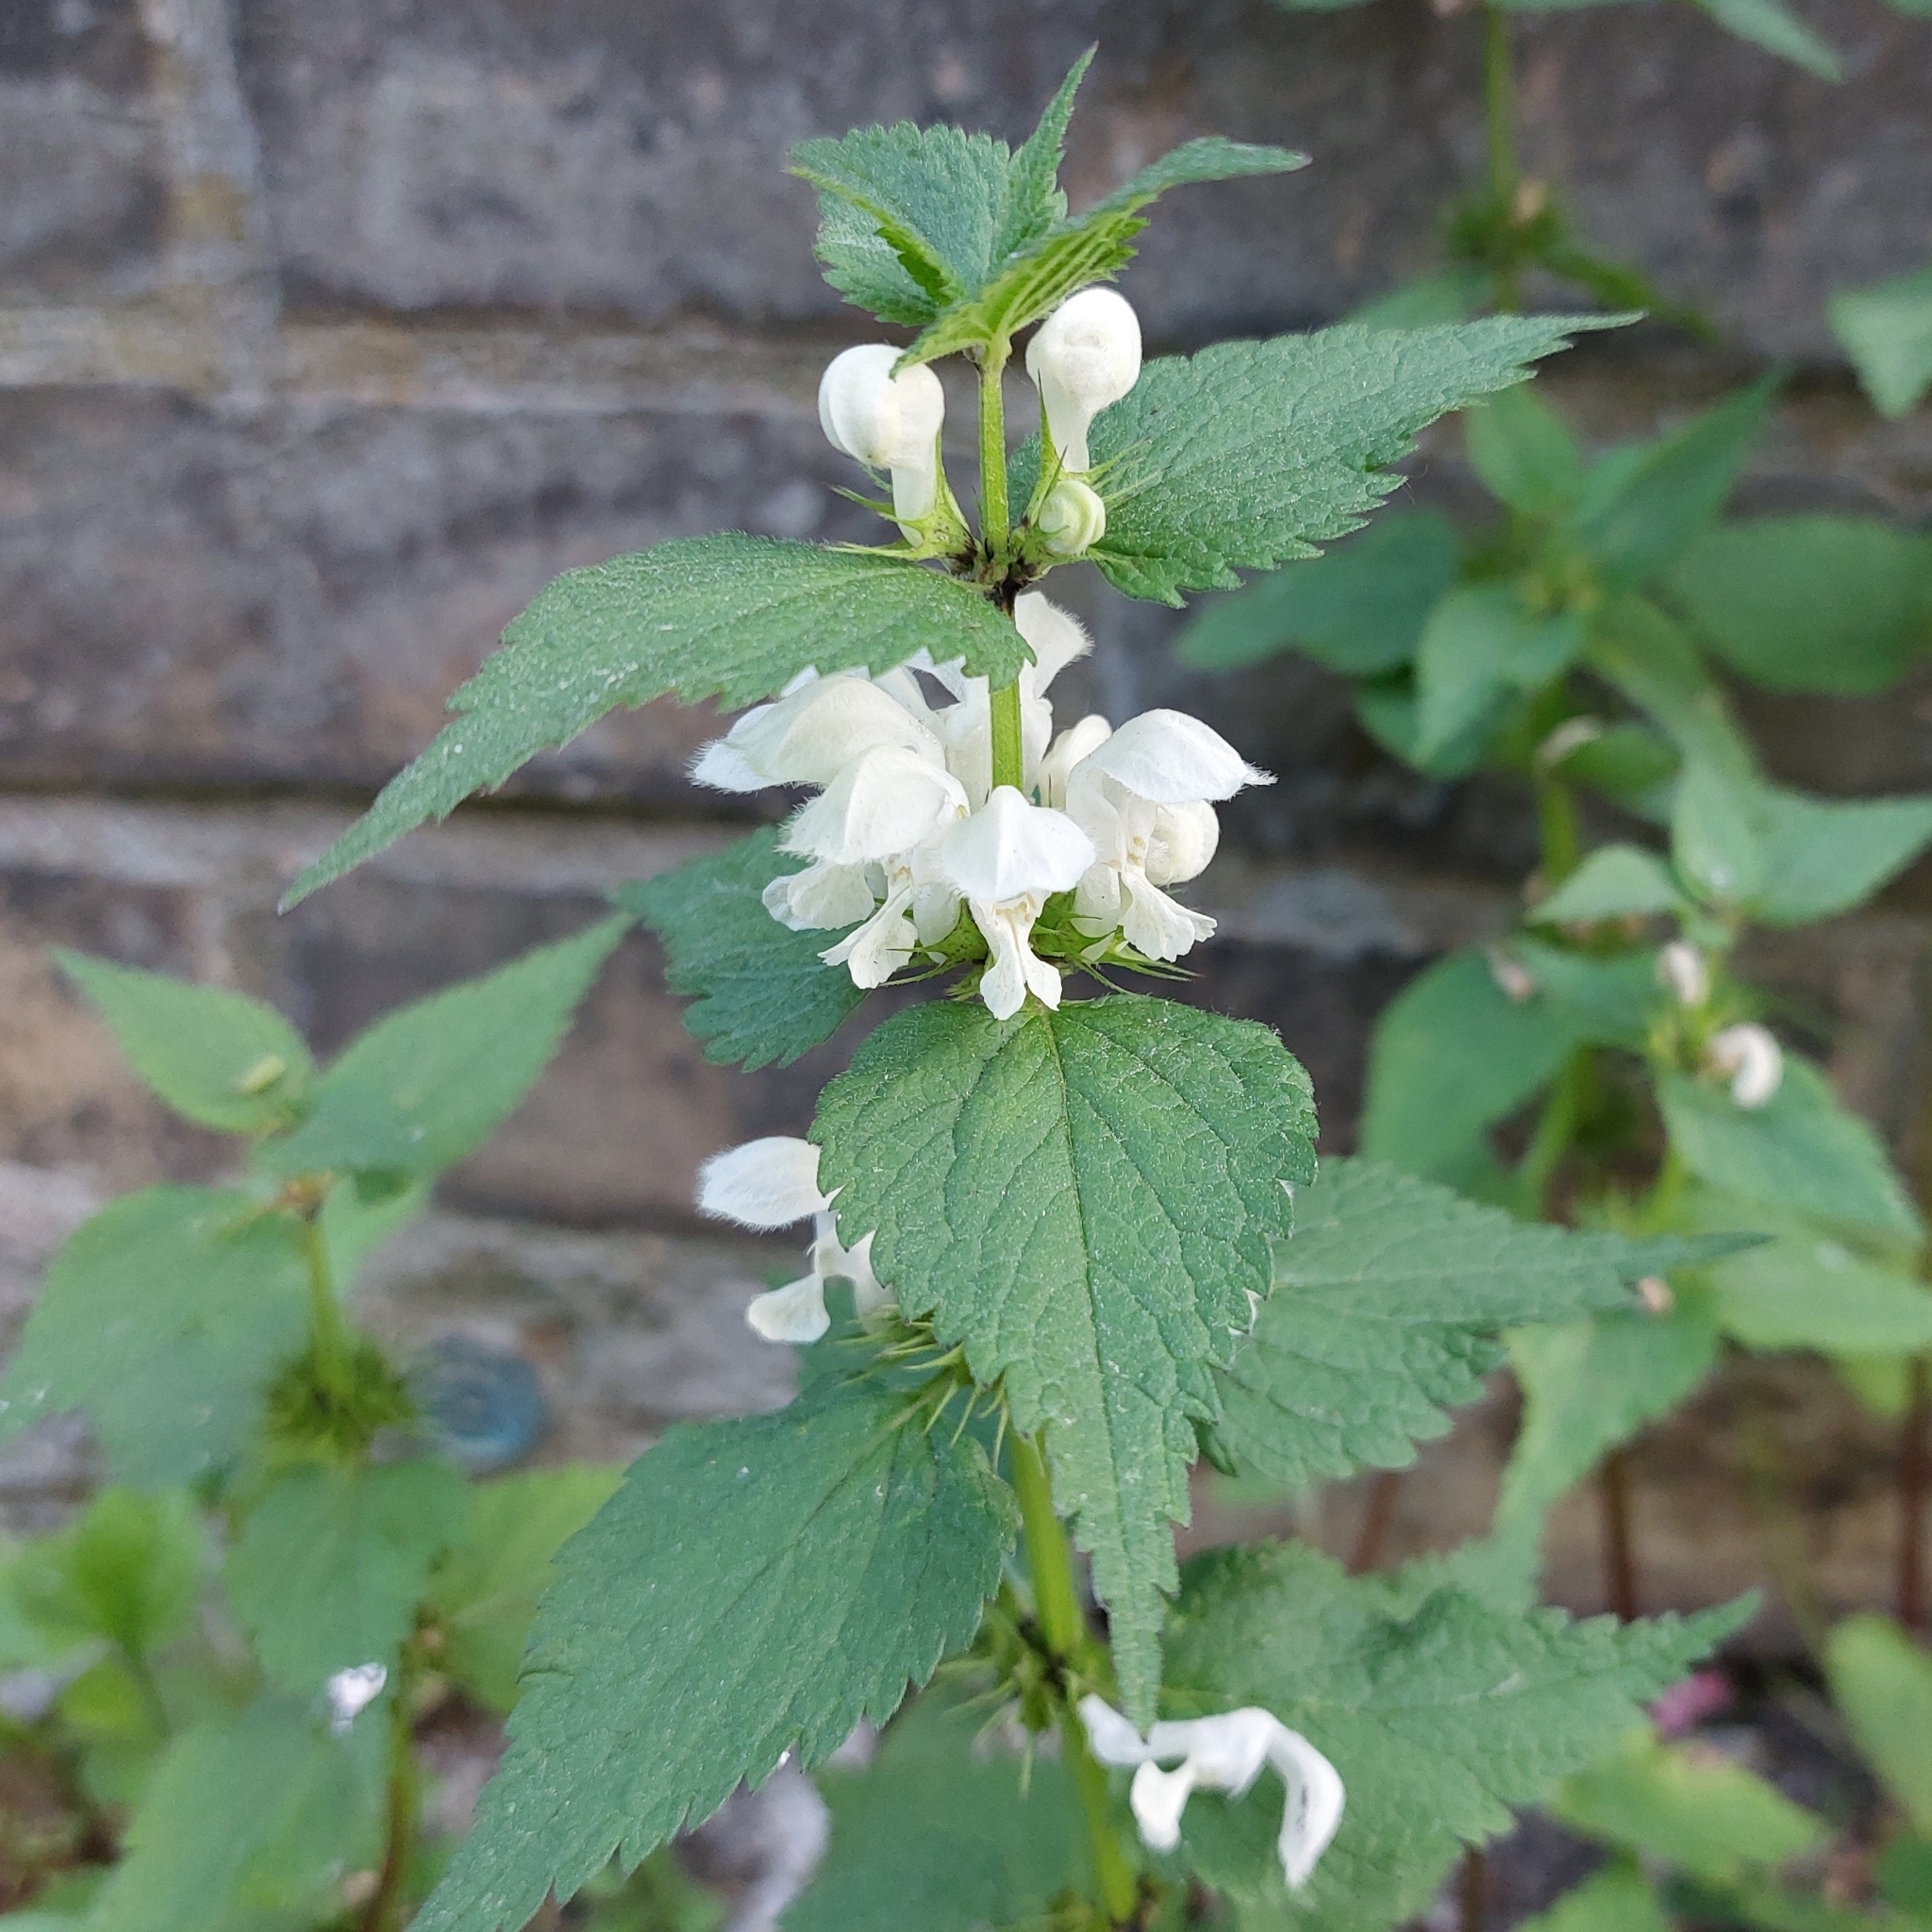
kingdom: Plantae
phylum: Tracheophyta
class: Magnoliopsida
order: Lamiales
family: Lamiaceae
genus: Lamium
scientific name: Lamium album
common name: White dead-nettle
